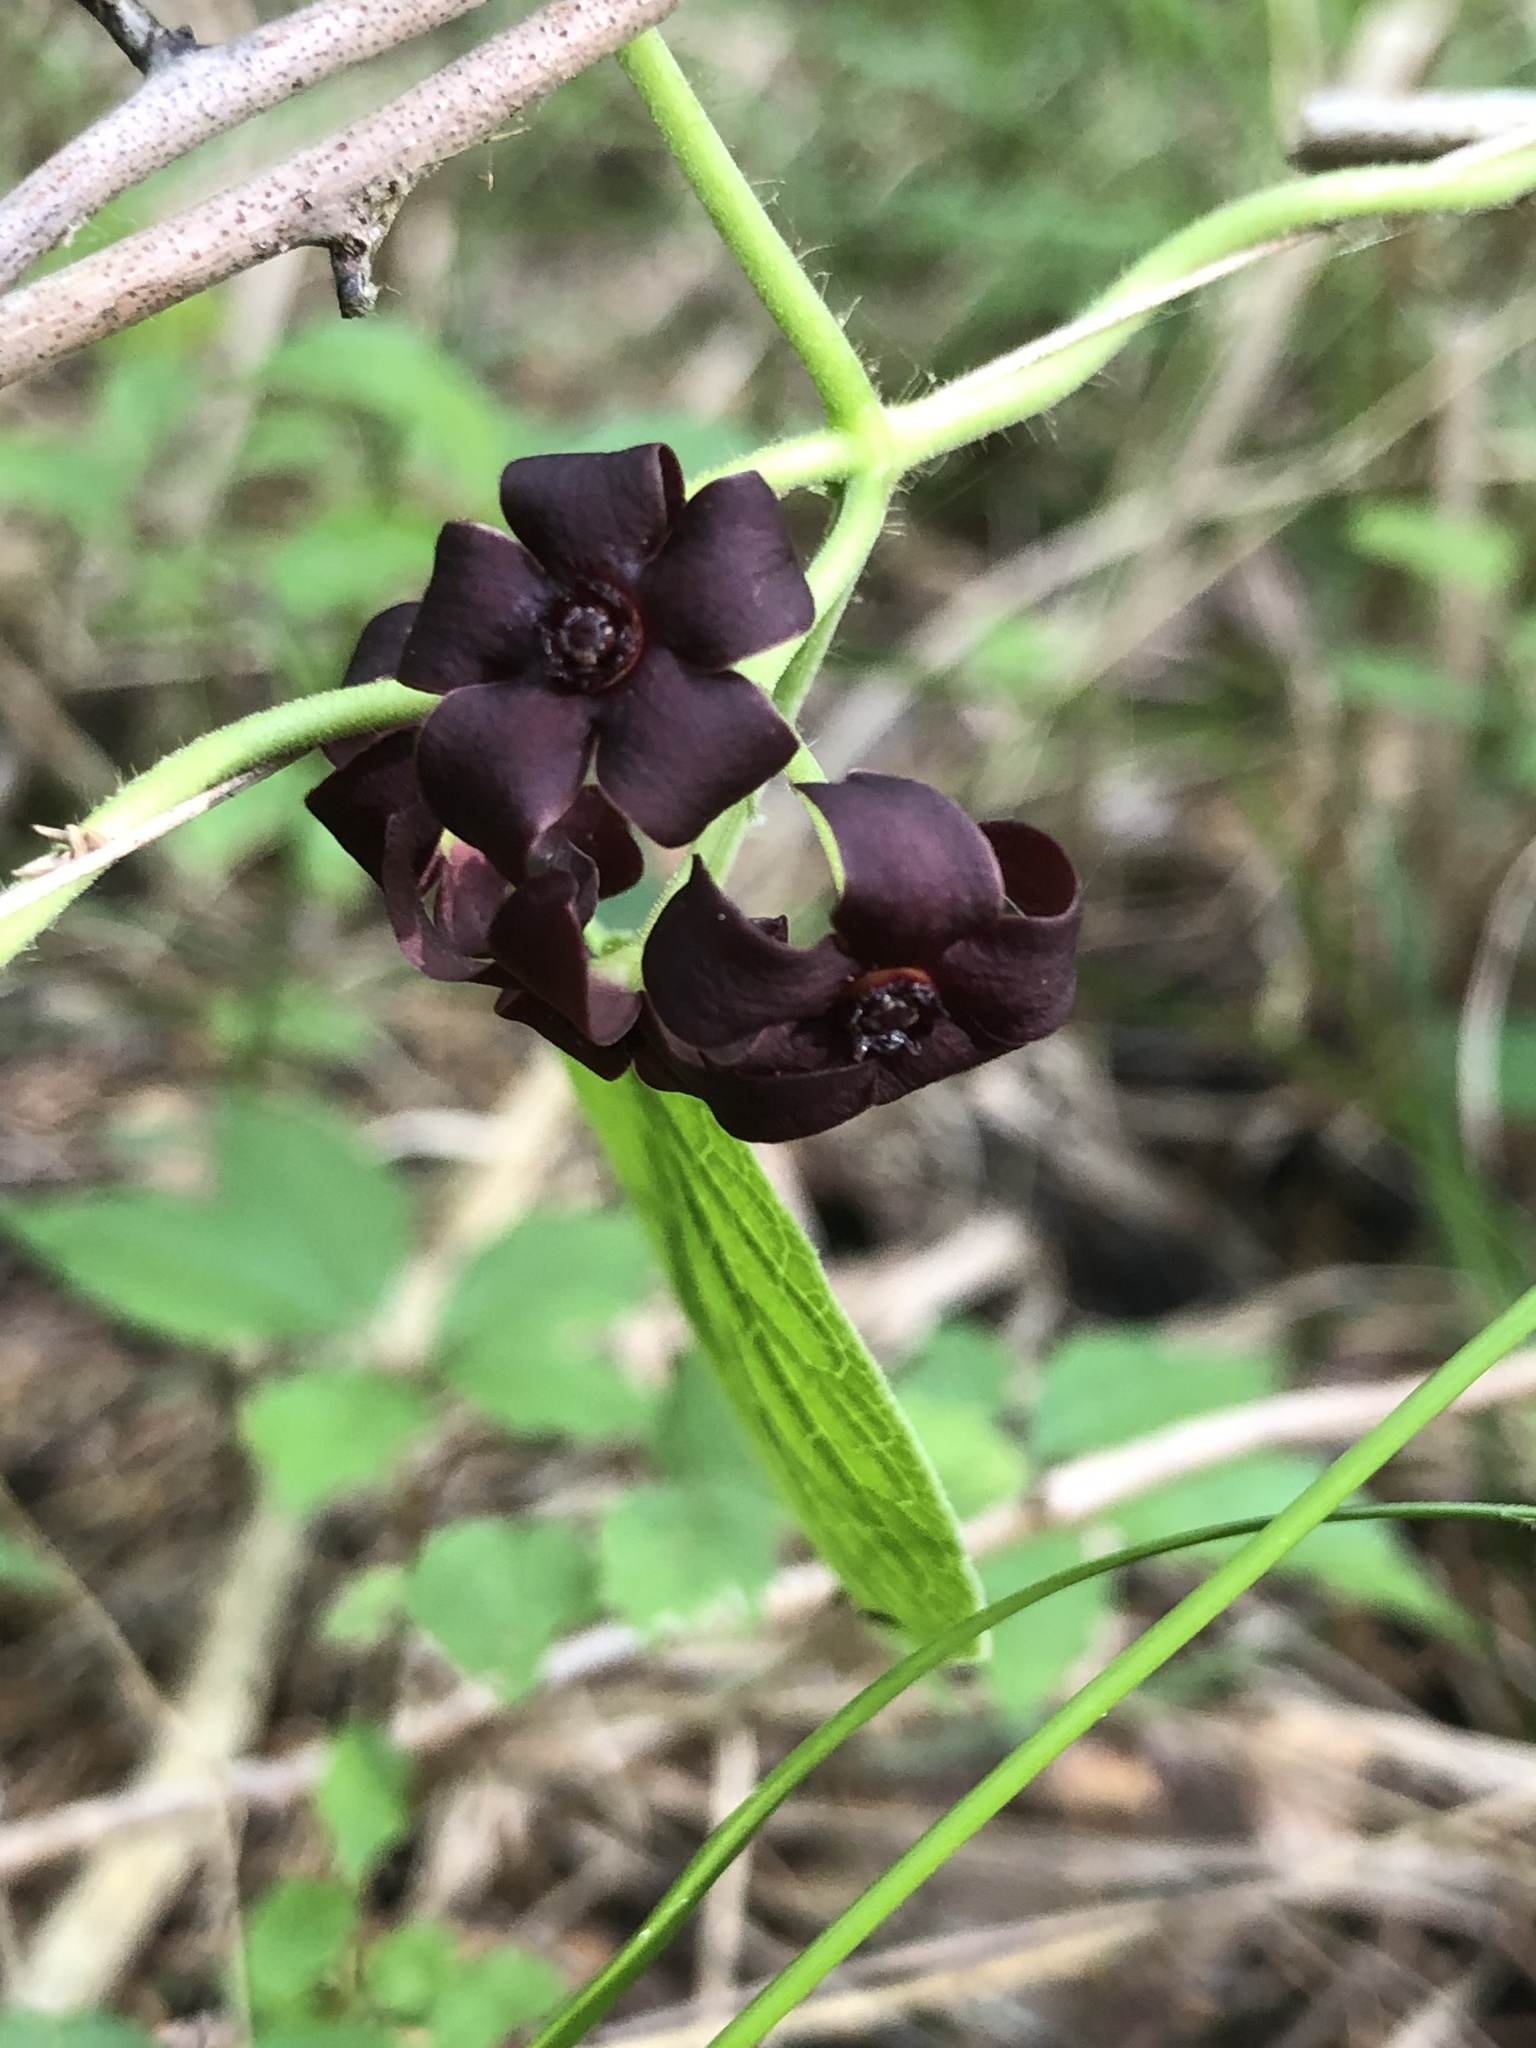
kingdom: Plantae
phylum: Tracheophyta
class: Magnoliopsida
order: Gentianales
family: Apocynaceae
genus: Matelea
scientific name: Matelea carolinensis
